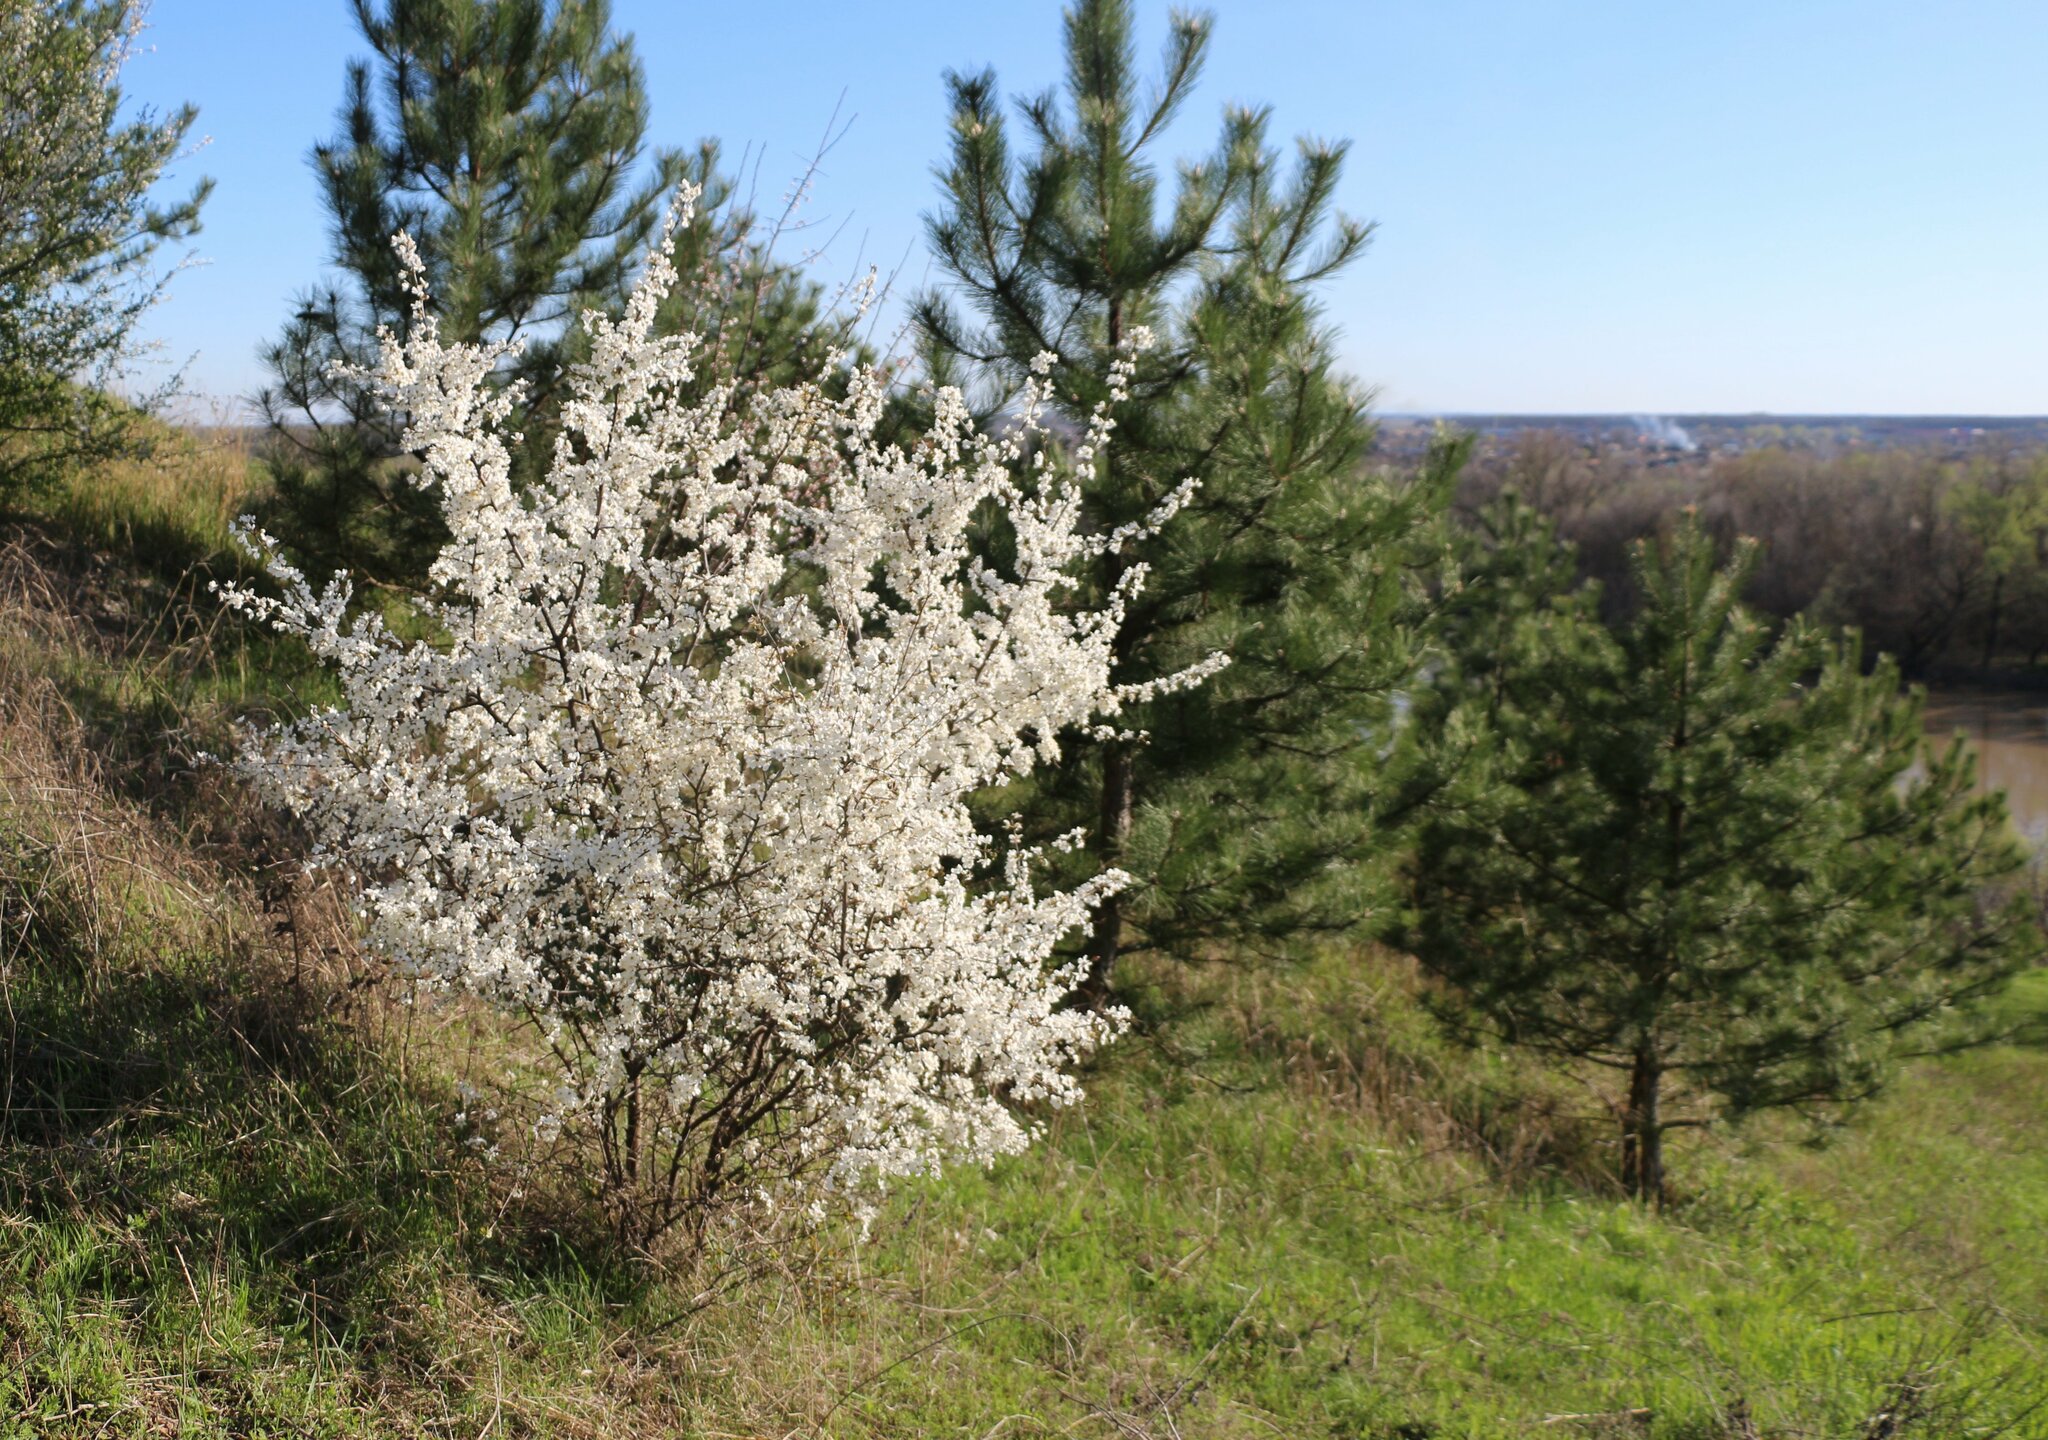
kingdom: Plantae
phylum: Tracheophyta
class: Magnoliopsida
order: Rosales
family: Rosaceae
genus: Prunus
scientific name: Prunus cerasifera
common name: Cherry plum
